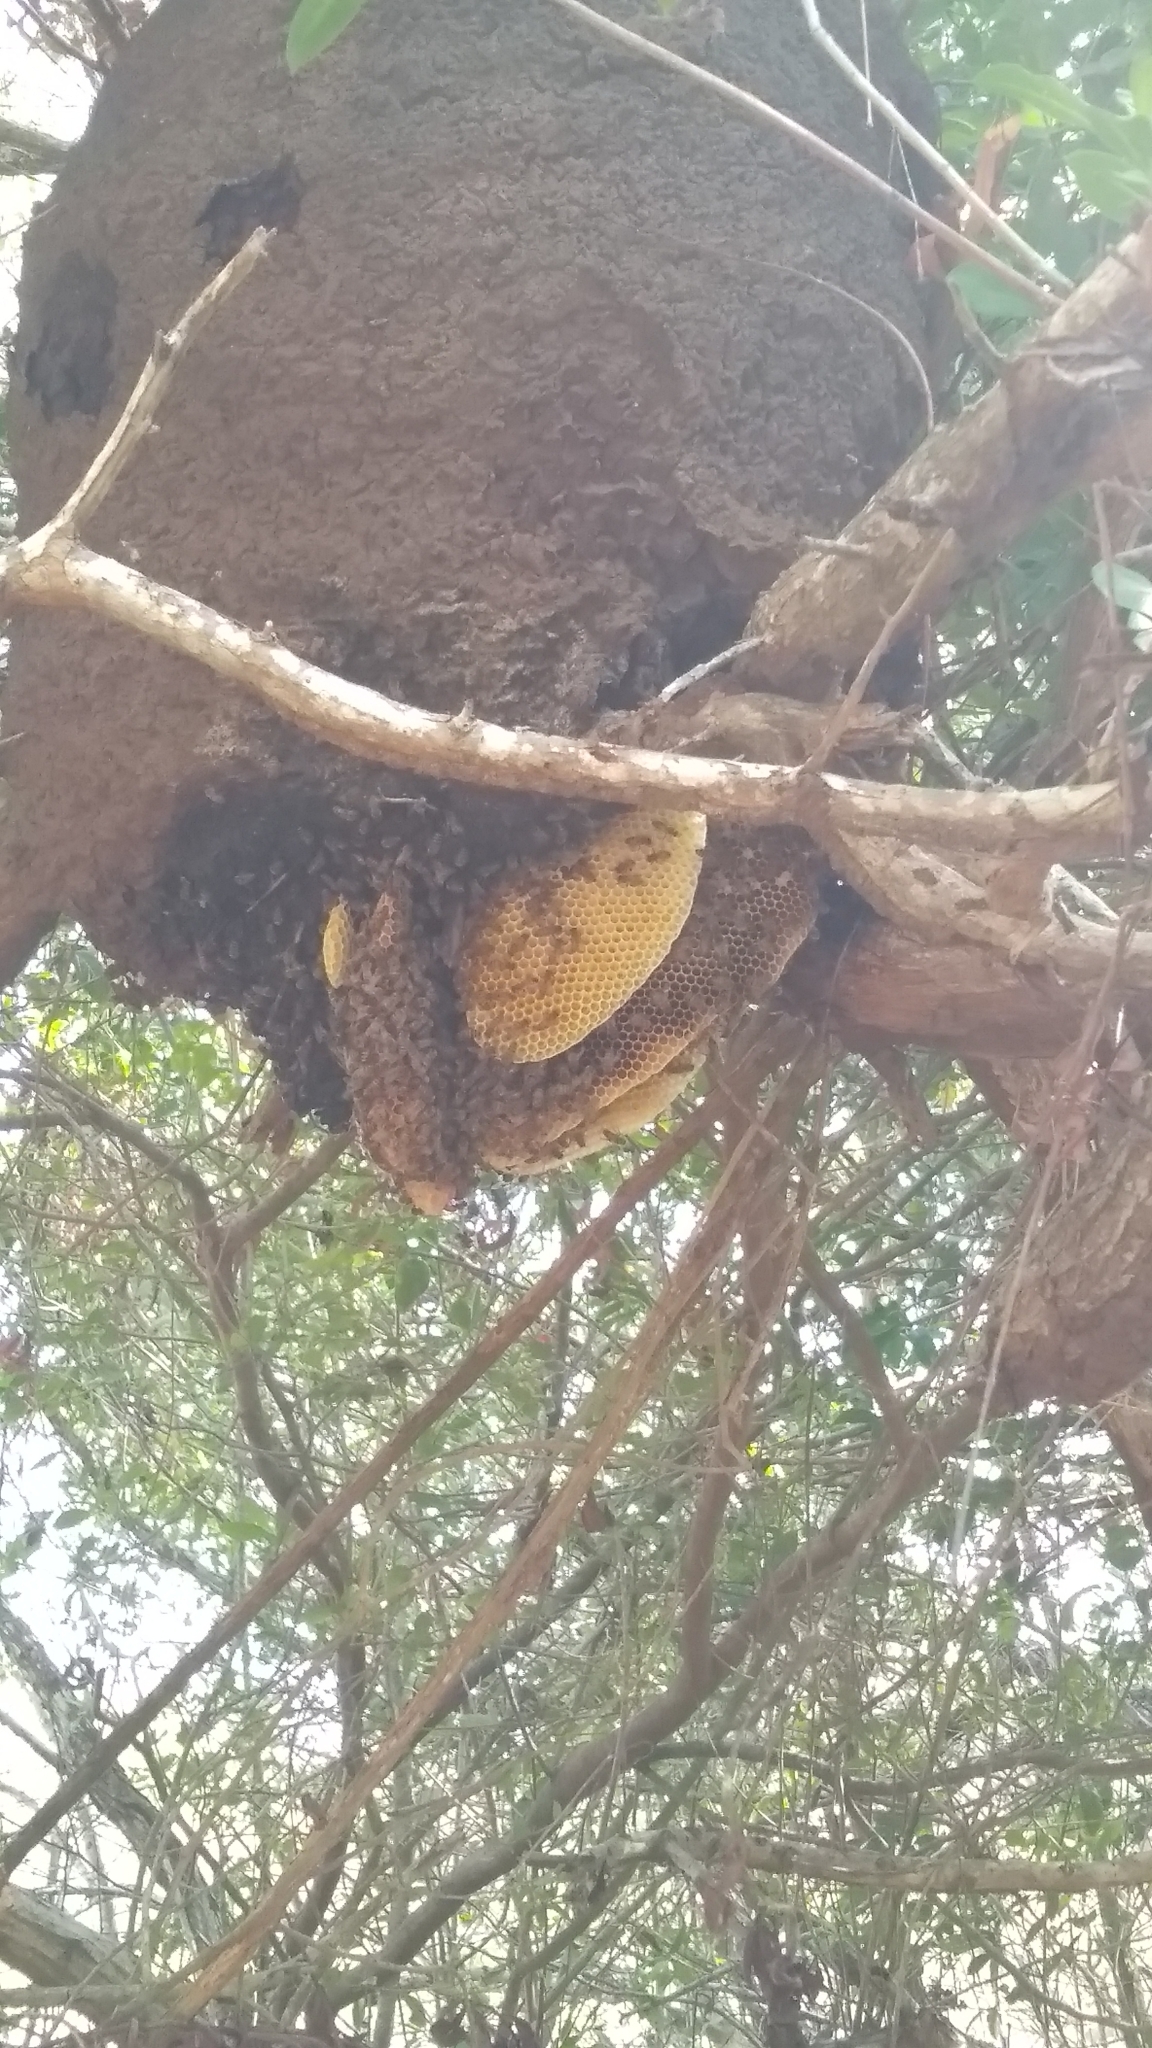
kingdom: Animalia
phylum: Arthropoda
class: Insecta
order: Hymenoptera
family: Apidae
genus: Apis
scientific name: Apis mellifera
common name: Honey bee
